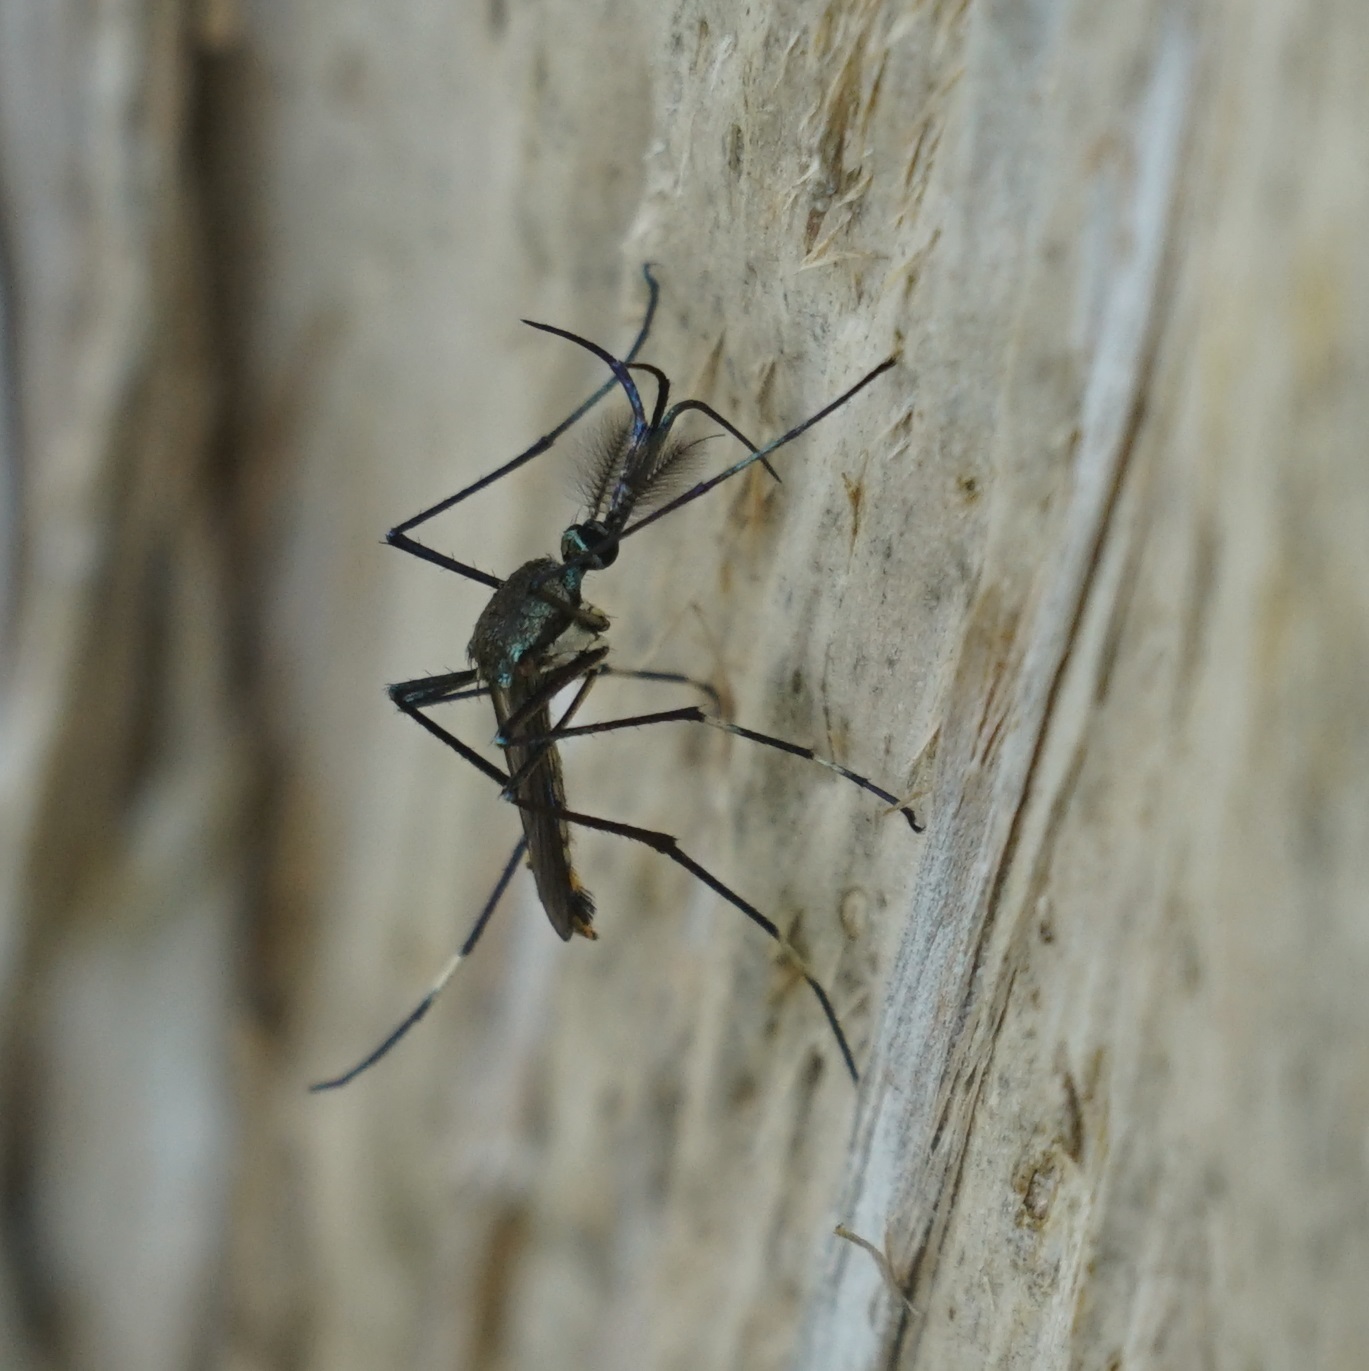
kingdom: Animalia
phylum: Arthropoda
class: Insecta
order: Diptera
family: Culicidae
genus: Toxorhynchites
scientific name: Toxorhynchites speciosus
